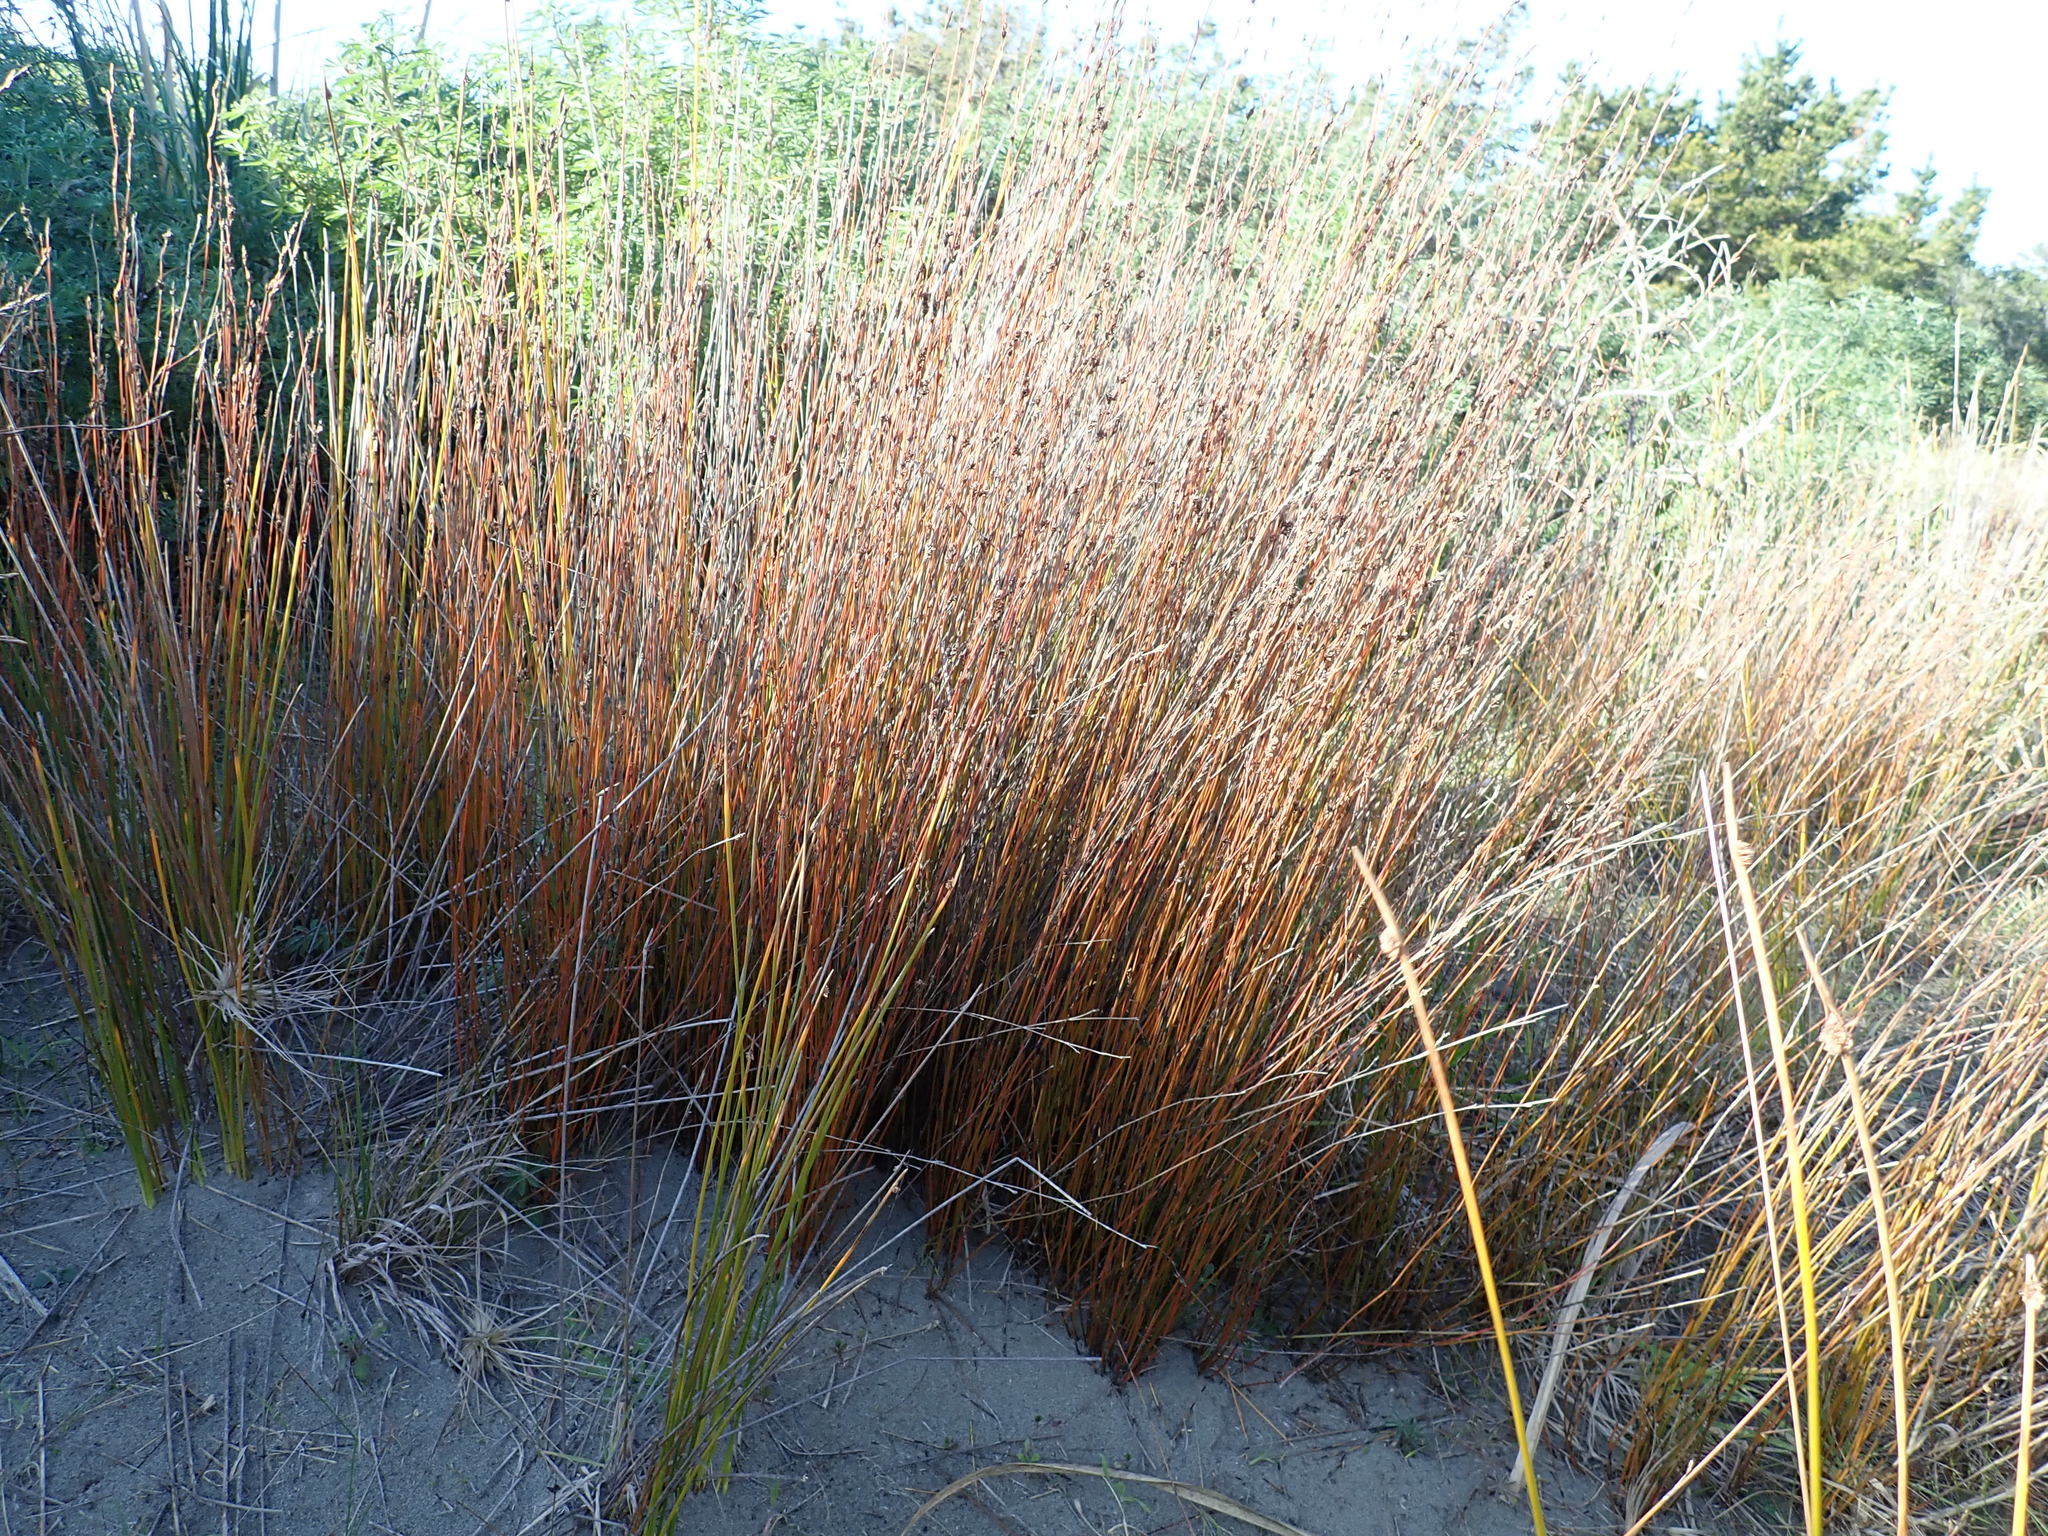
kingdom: Plantae
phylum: Tracheophyta
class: Liliopsida
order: Poales
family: Restionaceae
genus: Apodasmia
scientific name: Apodasmia similis
